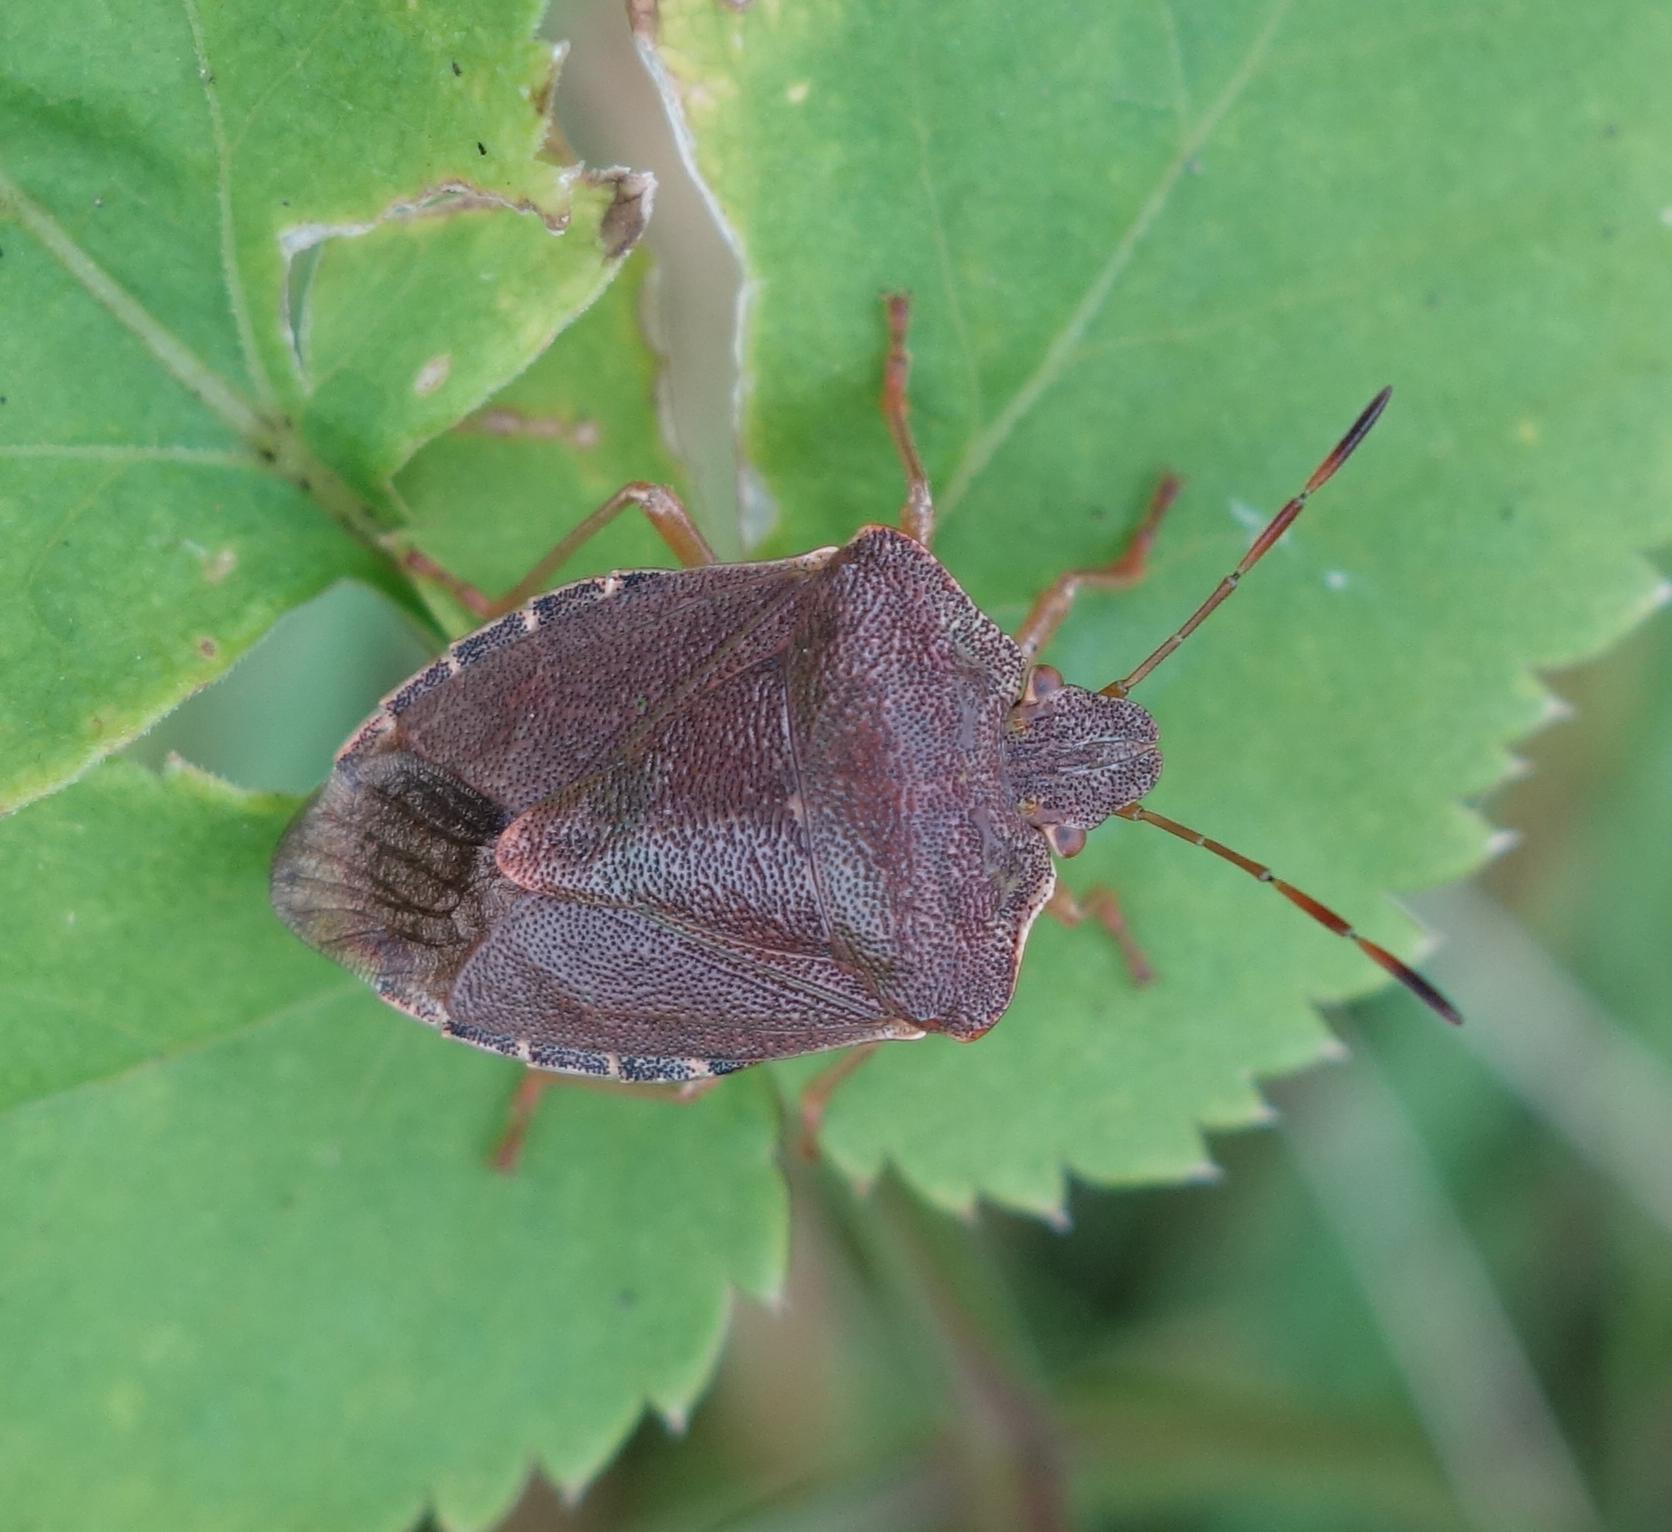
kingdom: Animalia
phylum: Arthropoda
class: Insecta
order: Hemiptera
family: Pentatomidae
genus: Palomena
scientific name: Palomena prasina
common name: Green shieldbug
